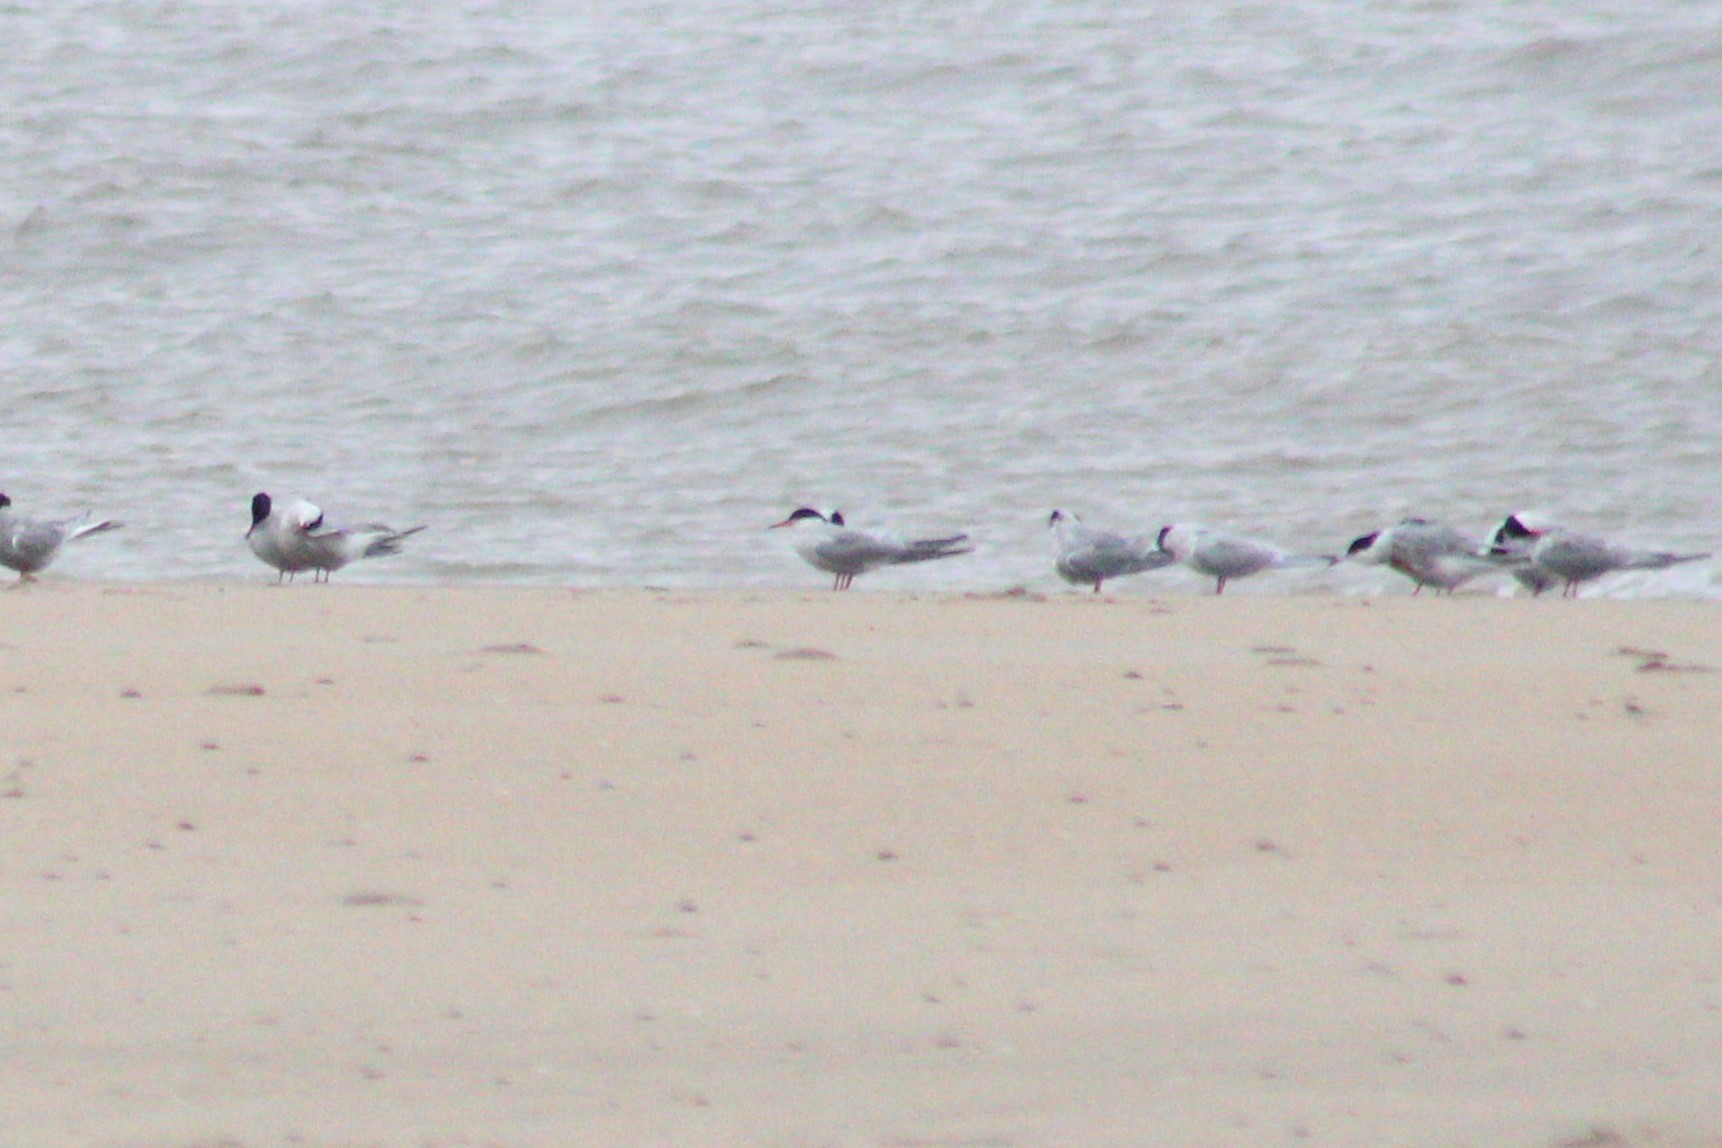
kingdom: Animalia
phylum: Chordata
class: Aves
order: Charadriiformes
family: Laridae
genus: Sterna
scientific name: Sterna hirundo
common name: Common tern
